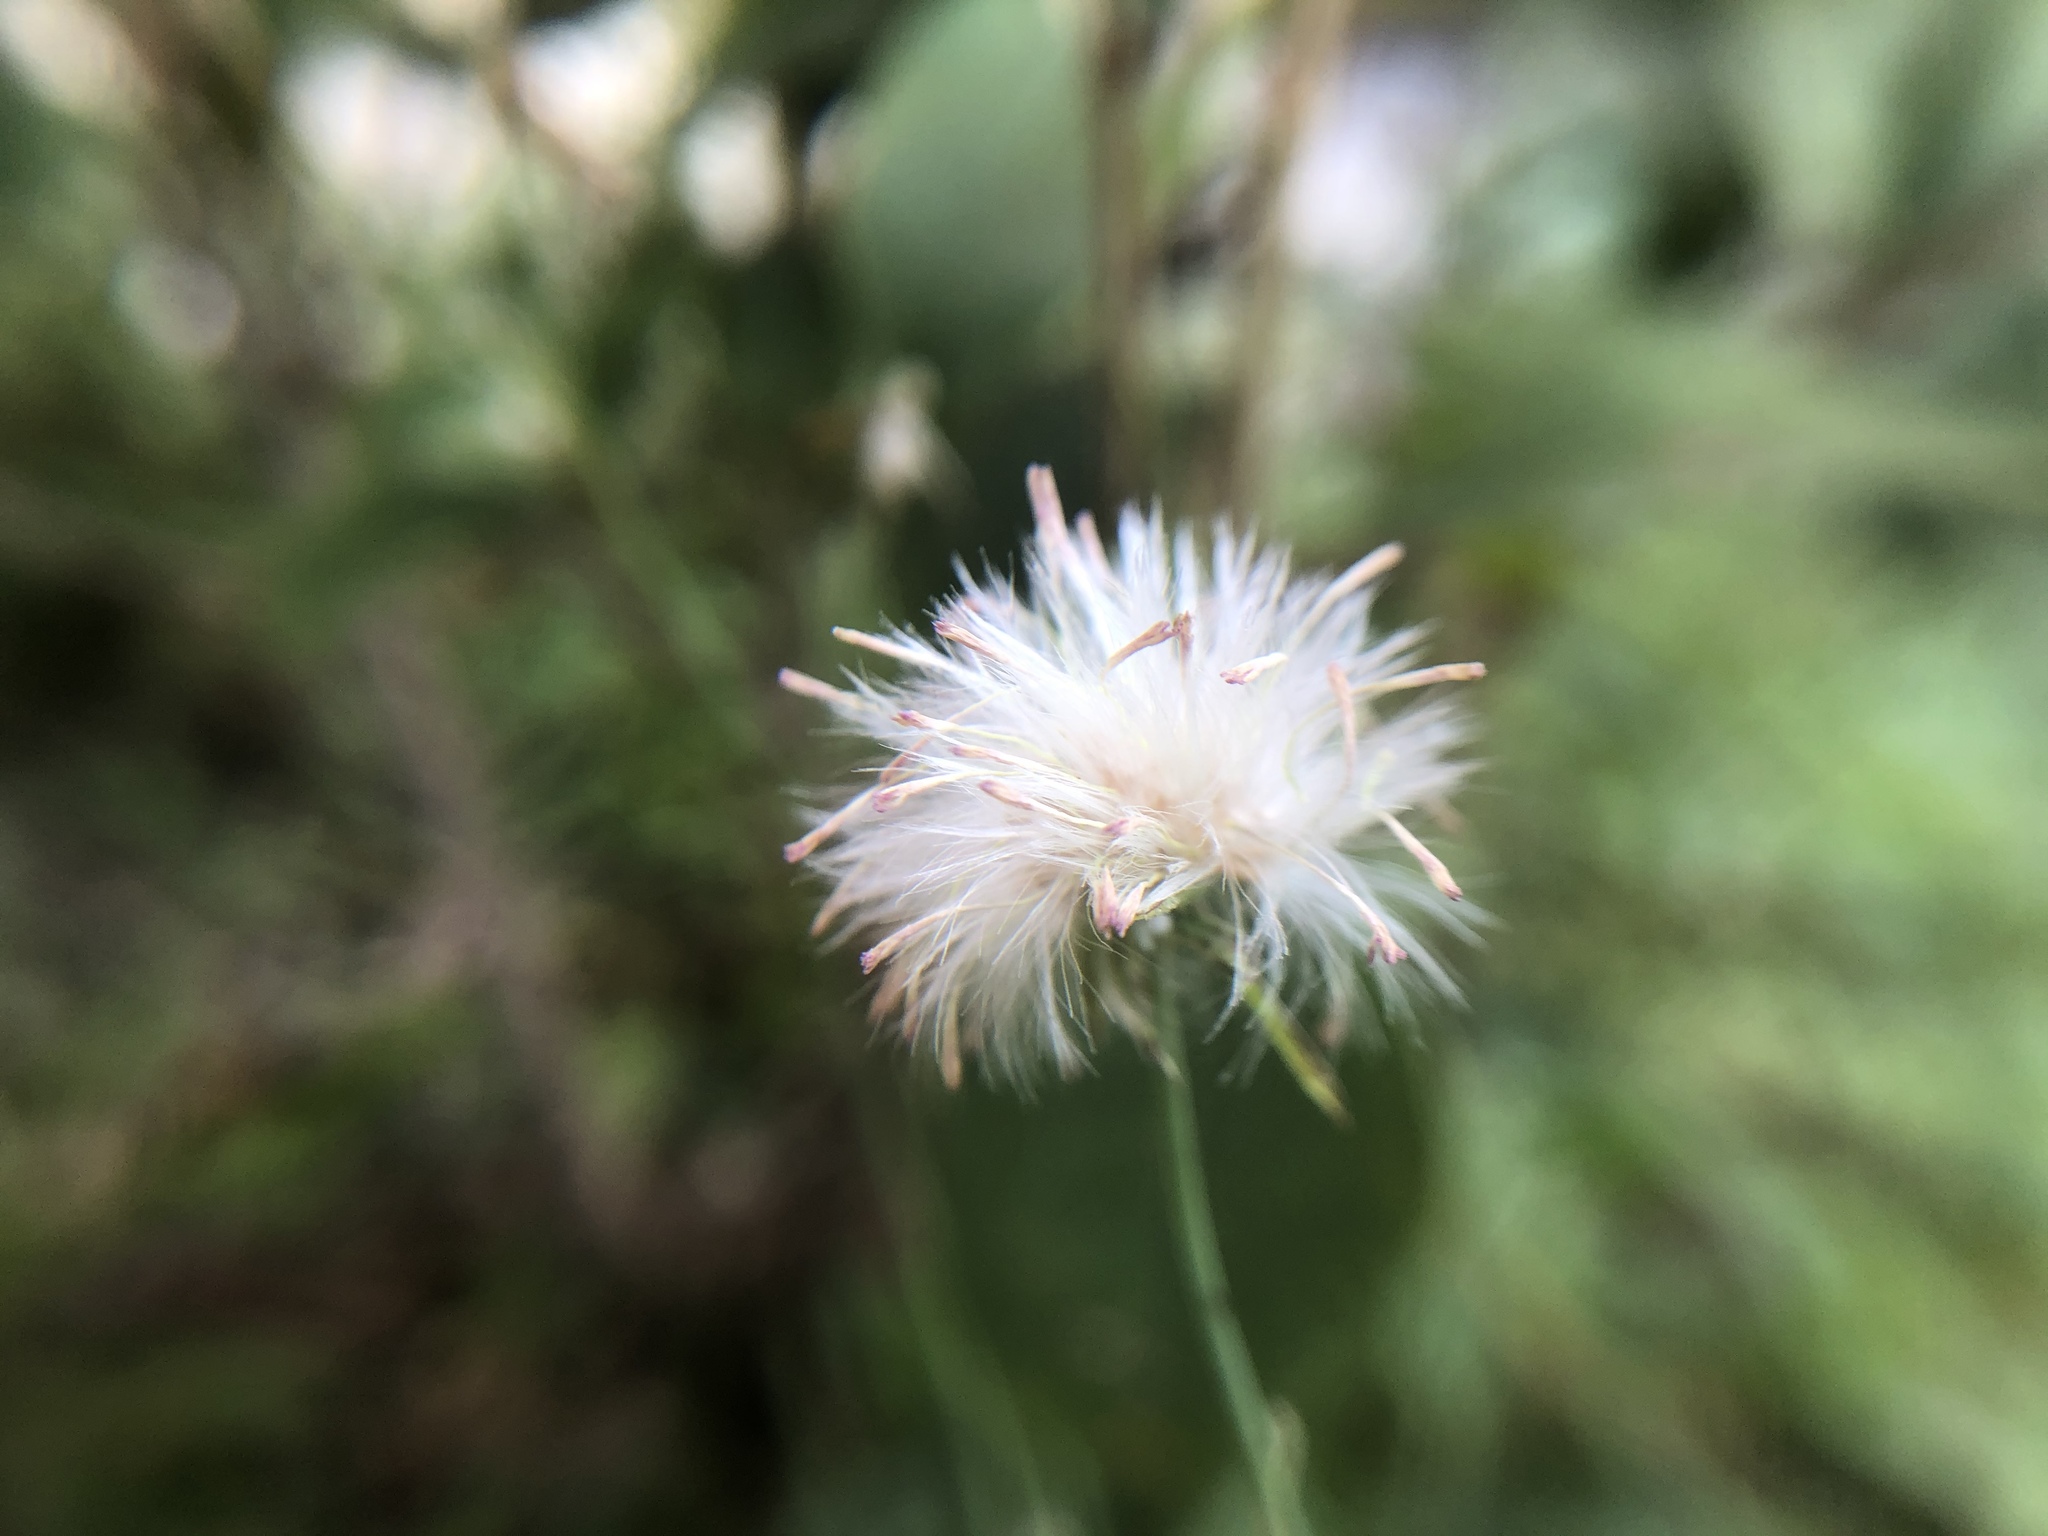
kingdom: Plantae
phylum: Tracheophyta
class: Magnoliopsida
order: Asterales
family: Asteraceae
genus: Emilia
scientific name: Emilia javanica
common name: Tassel-flower
